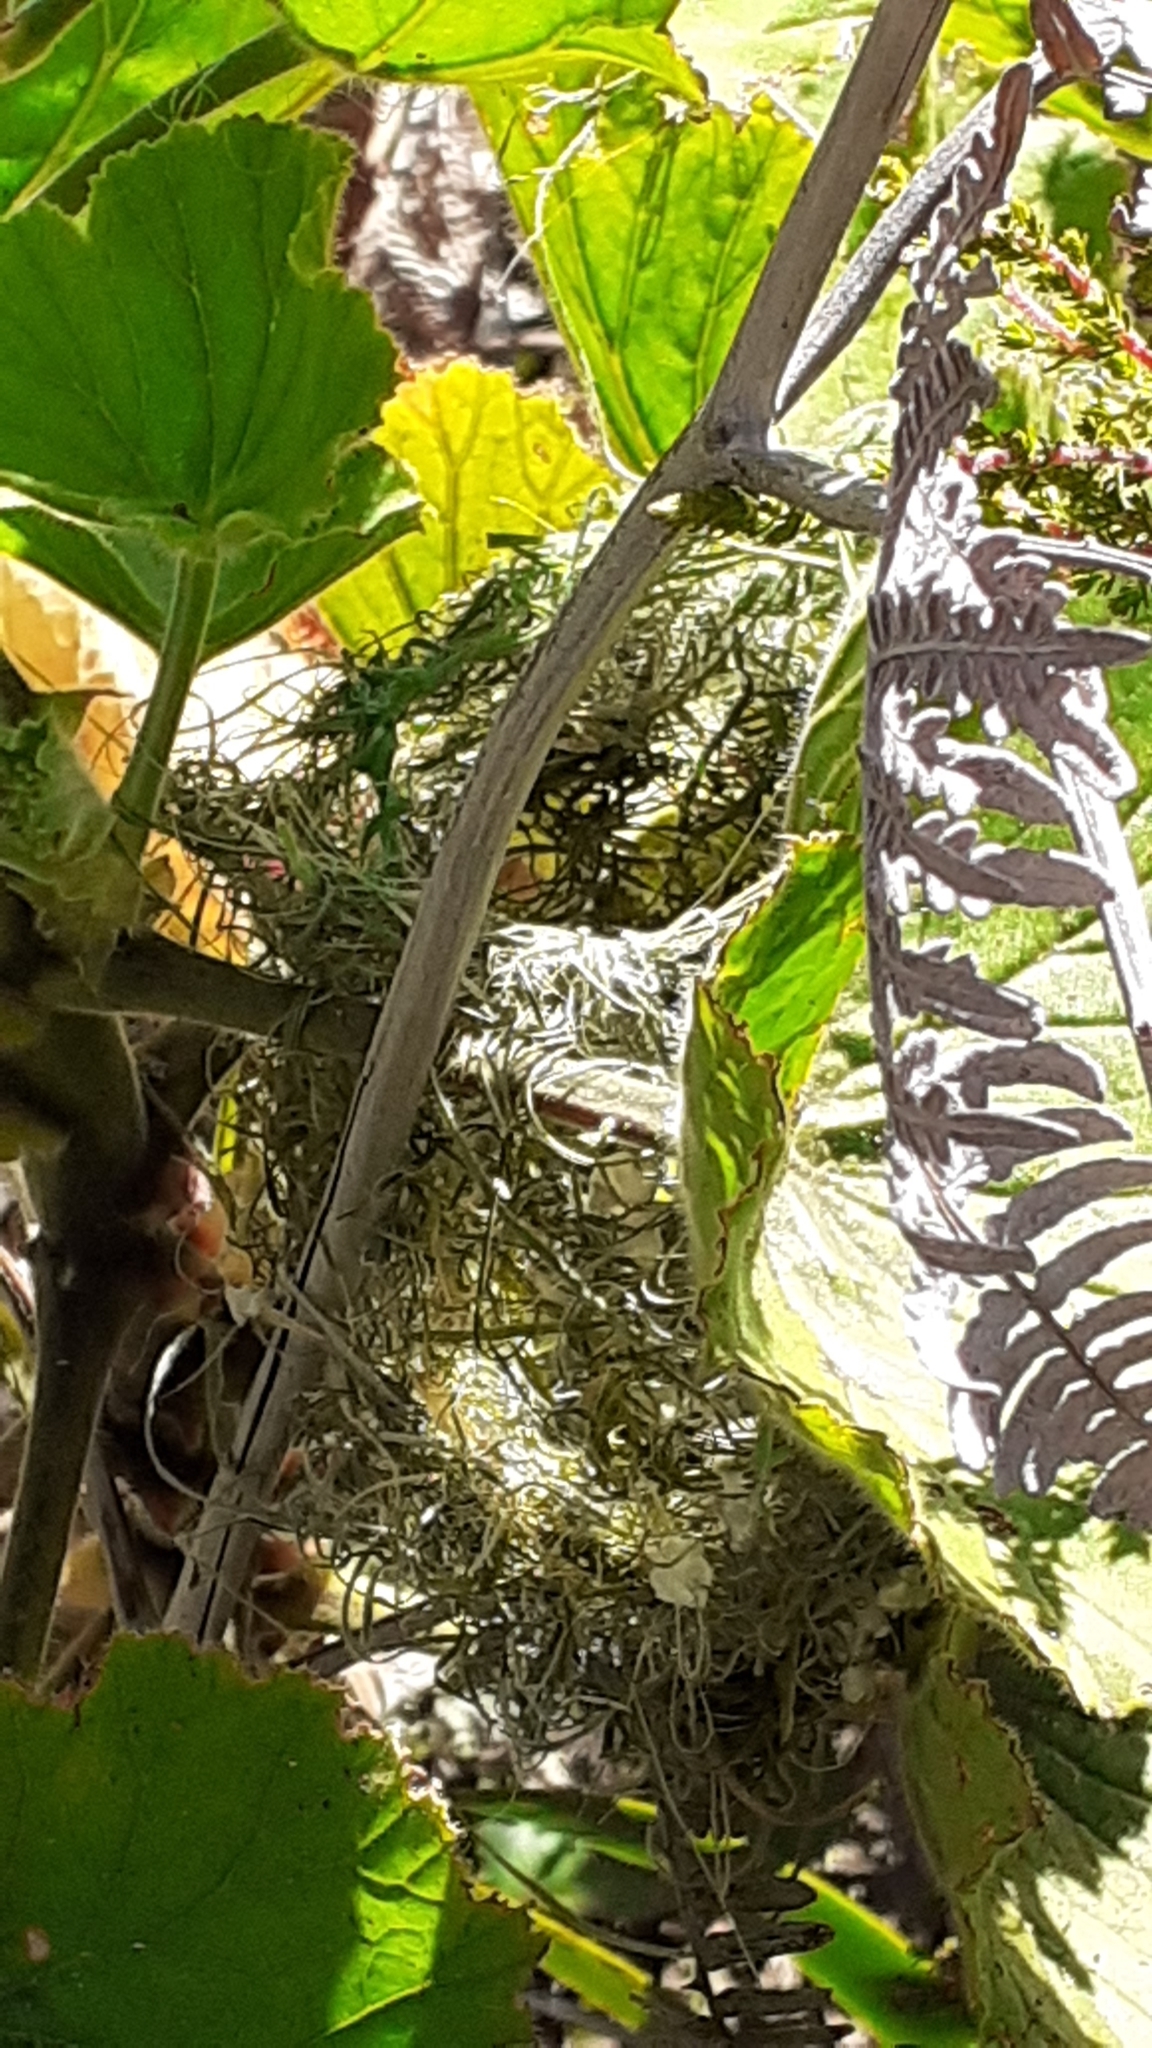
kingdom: Animalia
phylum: Chordata
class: Aves
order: Passeriformes
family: Cisticolidae
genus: Cisticola
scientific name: Cisticola juncidis
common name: Zitting cisticola
